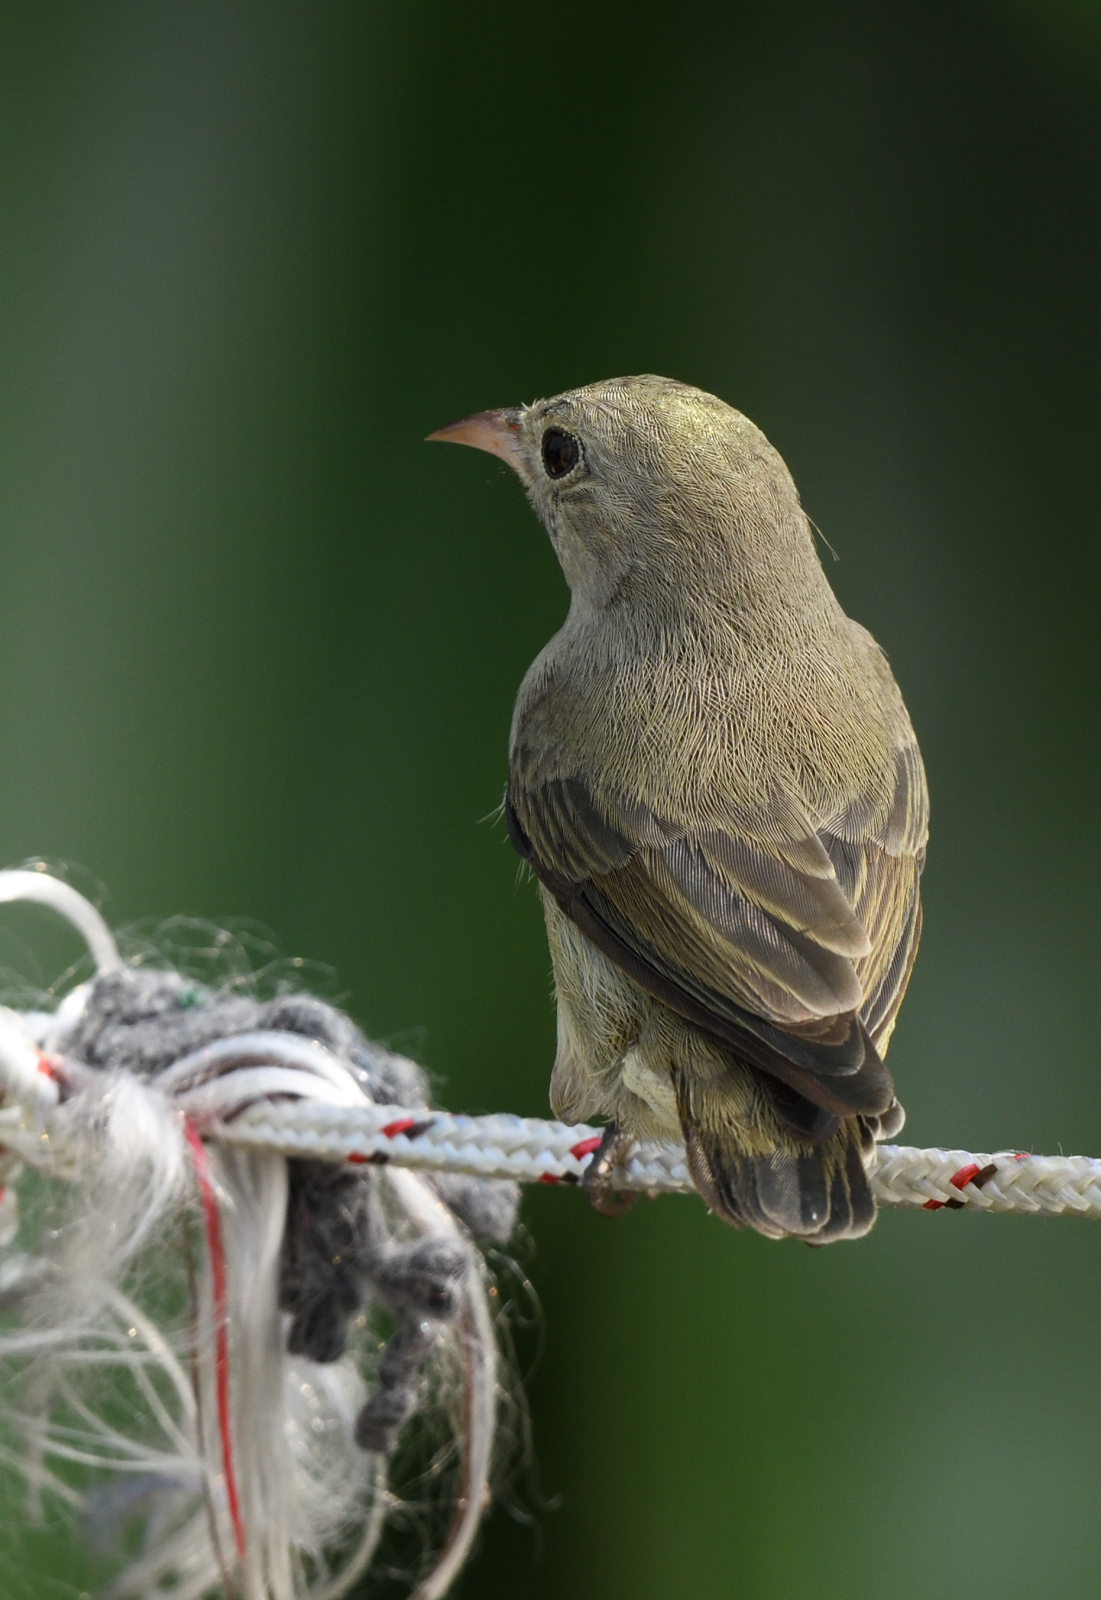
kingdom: Animalia
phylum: Chordata
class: Aves
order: Passeriformes
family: Dicaeidae
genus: Dicaeum
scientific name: Dicaeum erythrorhynchos
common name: Pale-billed flowerpecker
